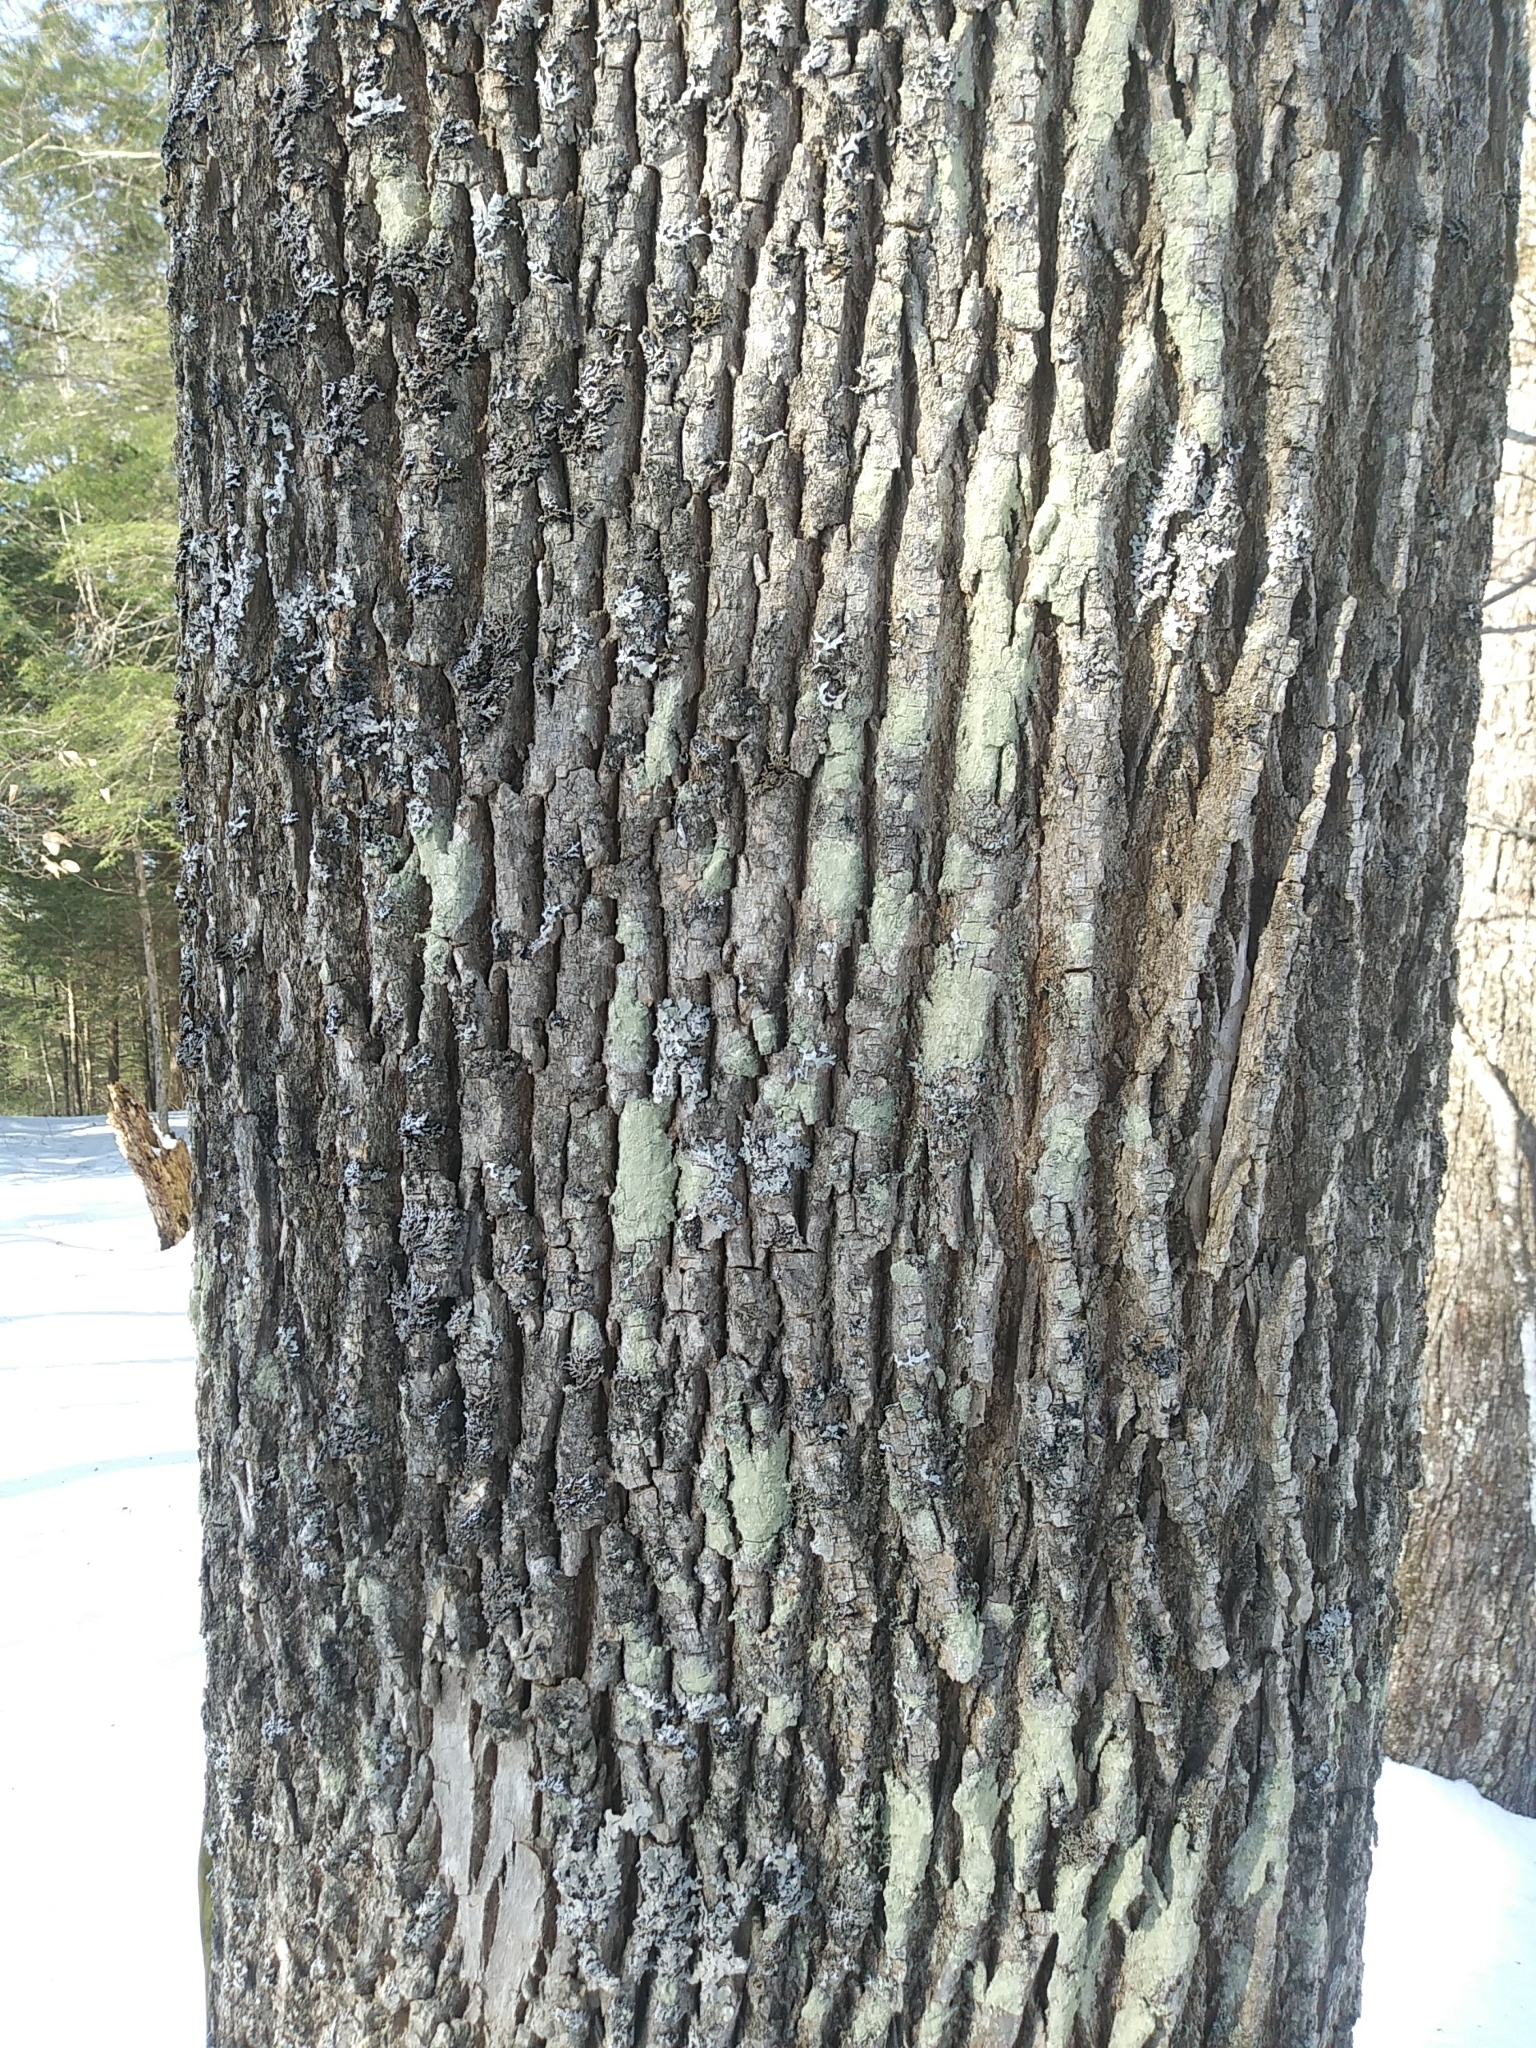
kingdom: Plantae
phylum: Tracheophyta
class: Magnoliopsida
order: Lamiales
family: Oleaceae
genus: Fraxinus
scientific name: Fraxinus americana
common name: White ash
